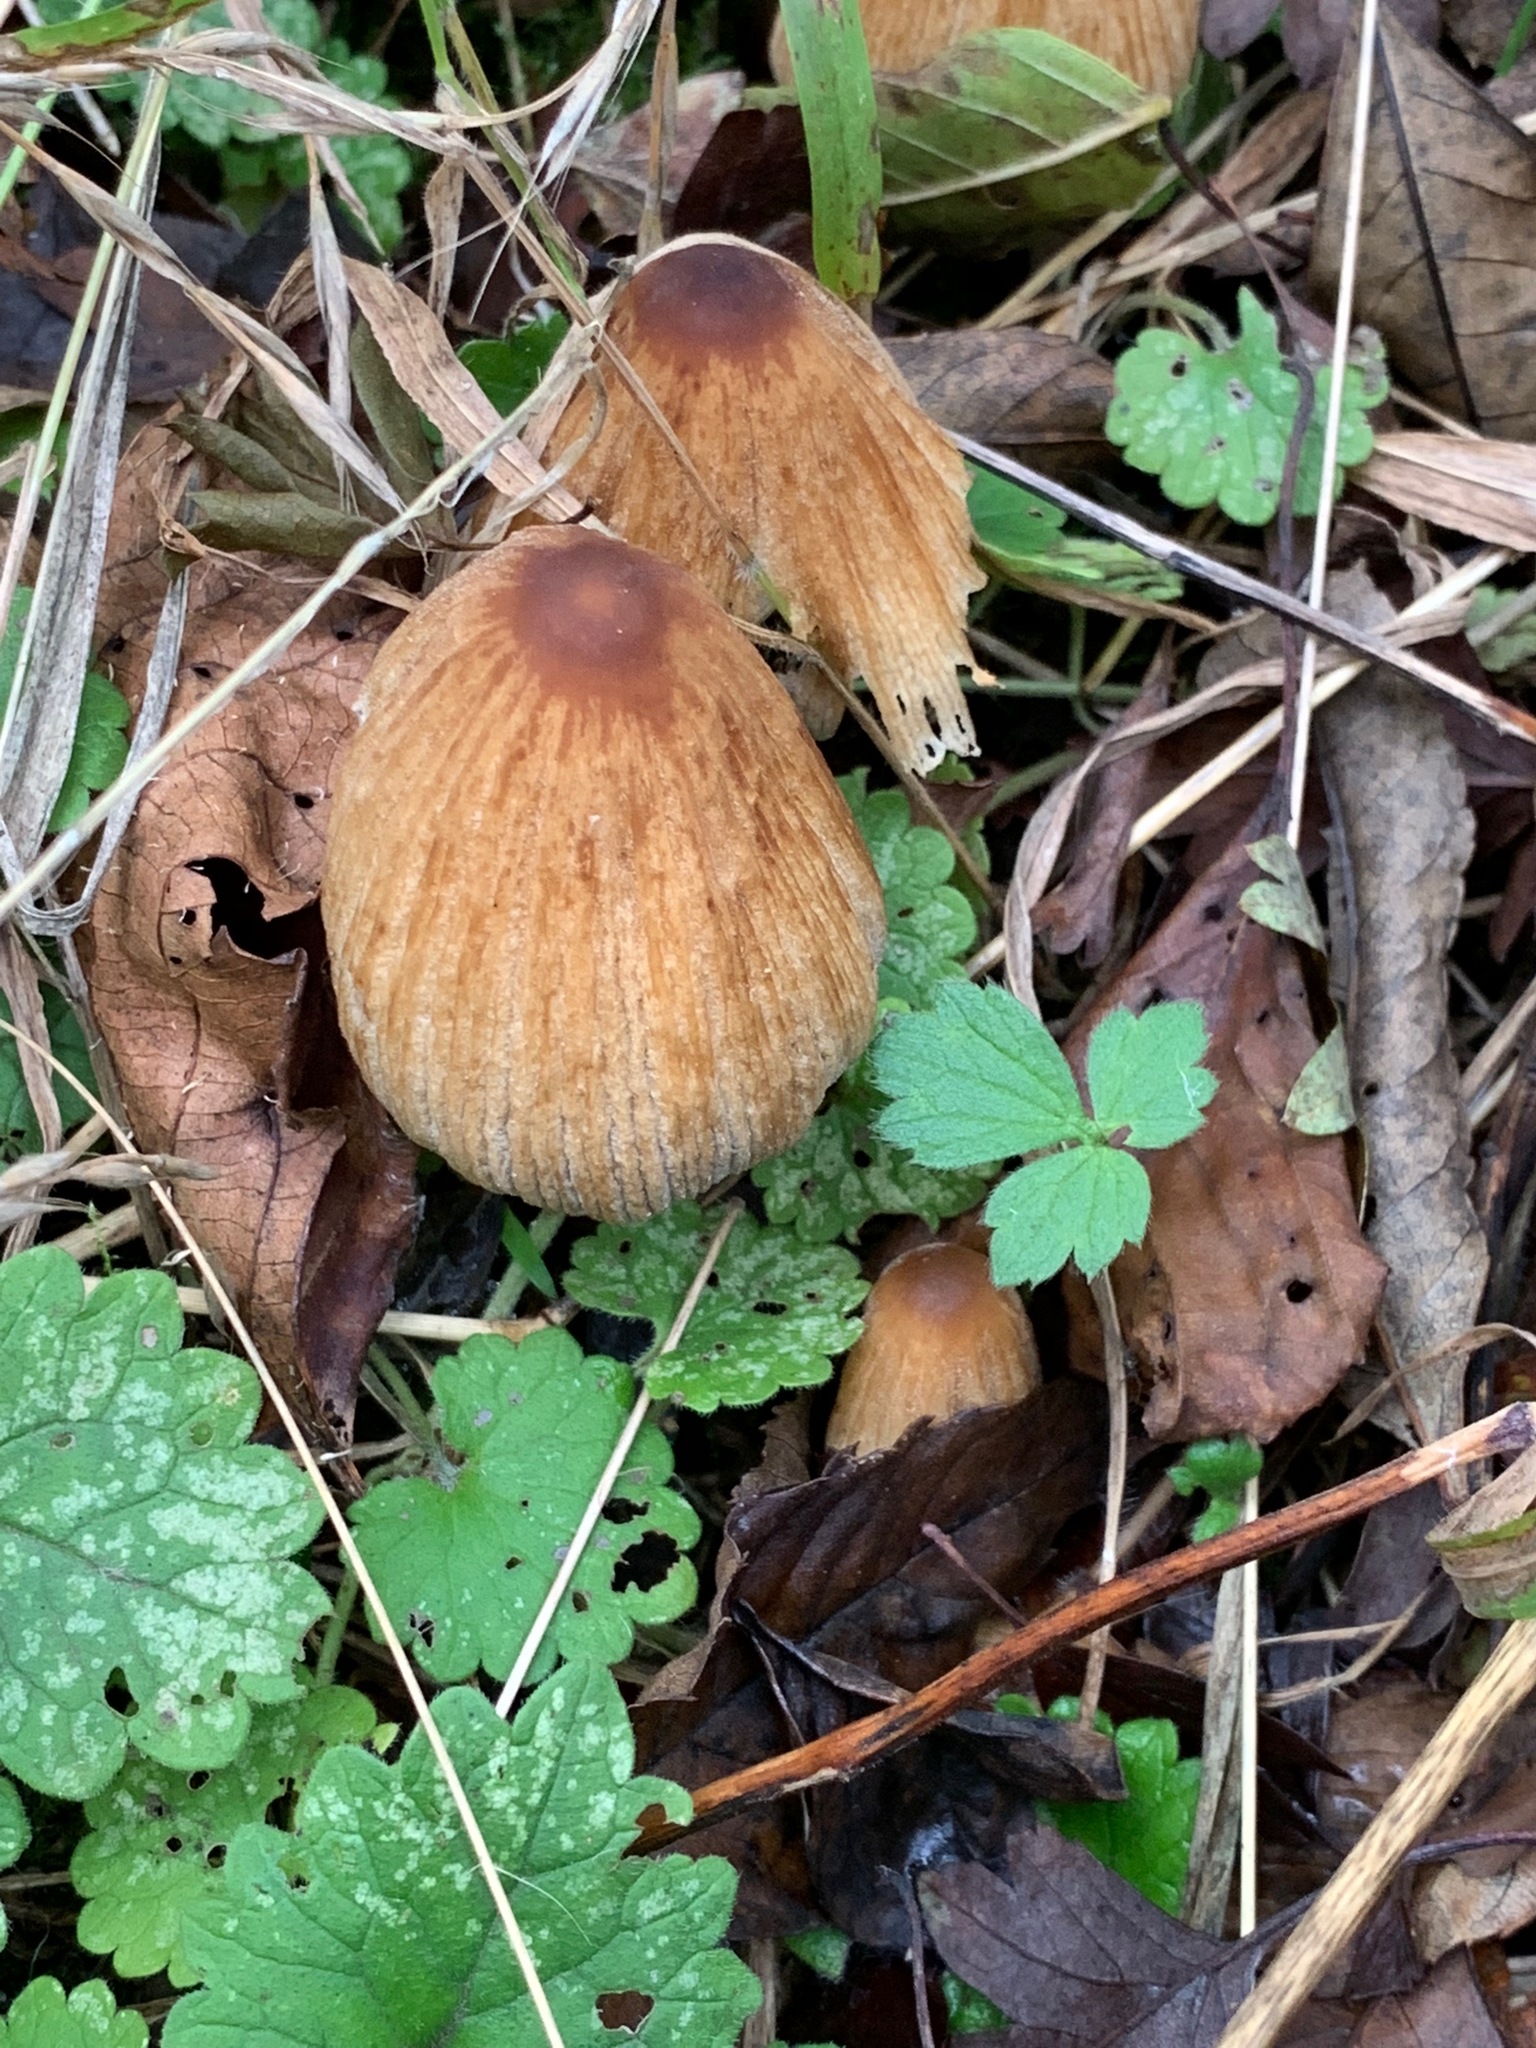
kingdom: Fungi
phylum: Basidiomycota
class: Agaricomycetes
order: Agaricales
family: Psathyrellaceae
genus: Coprinellus
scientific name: Coprinellus micaceus
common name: Glistening ink-cap
